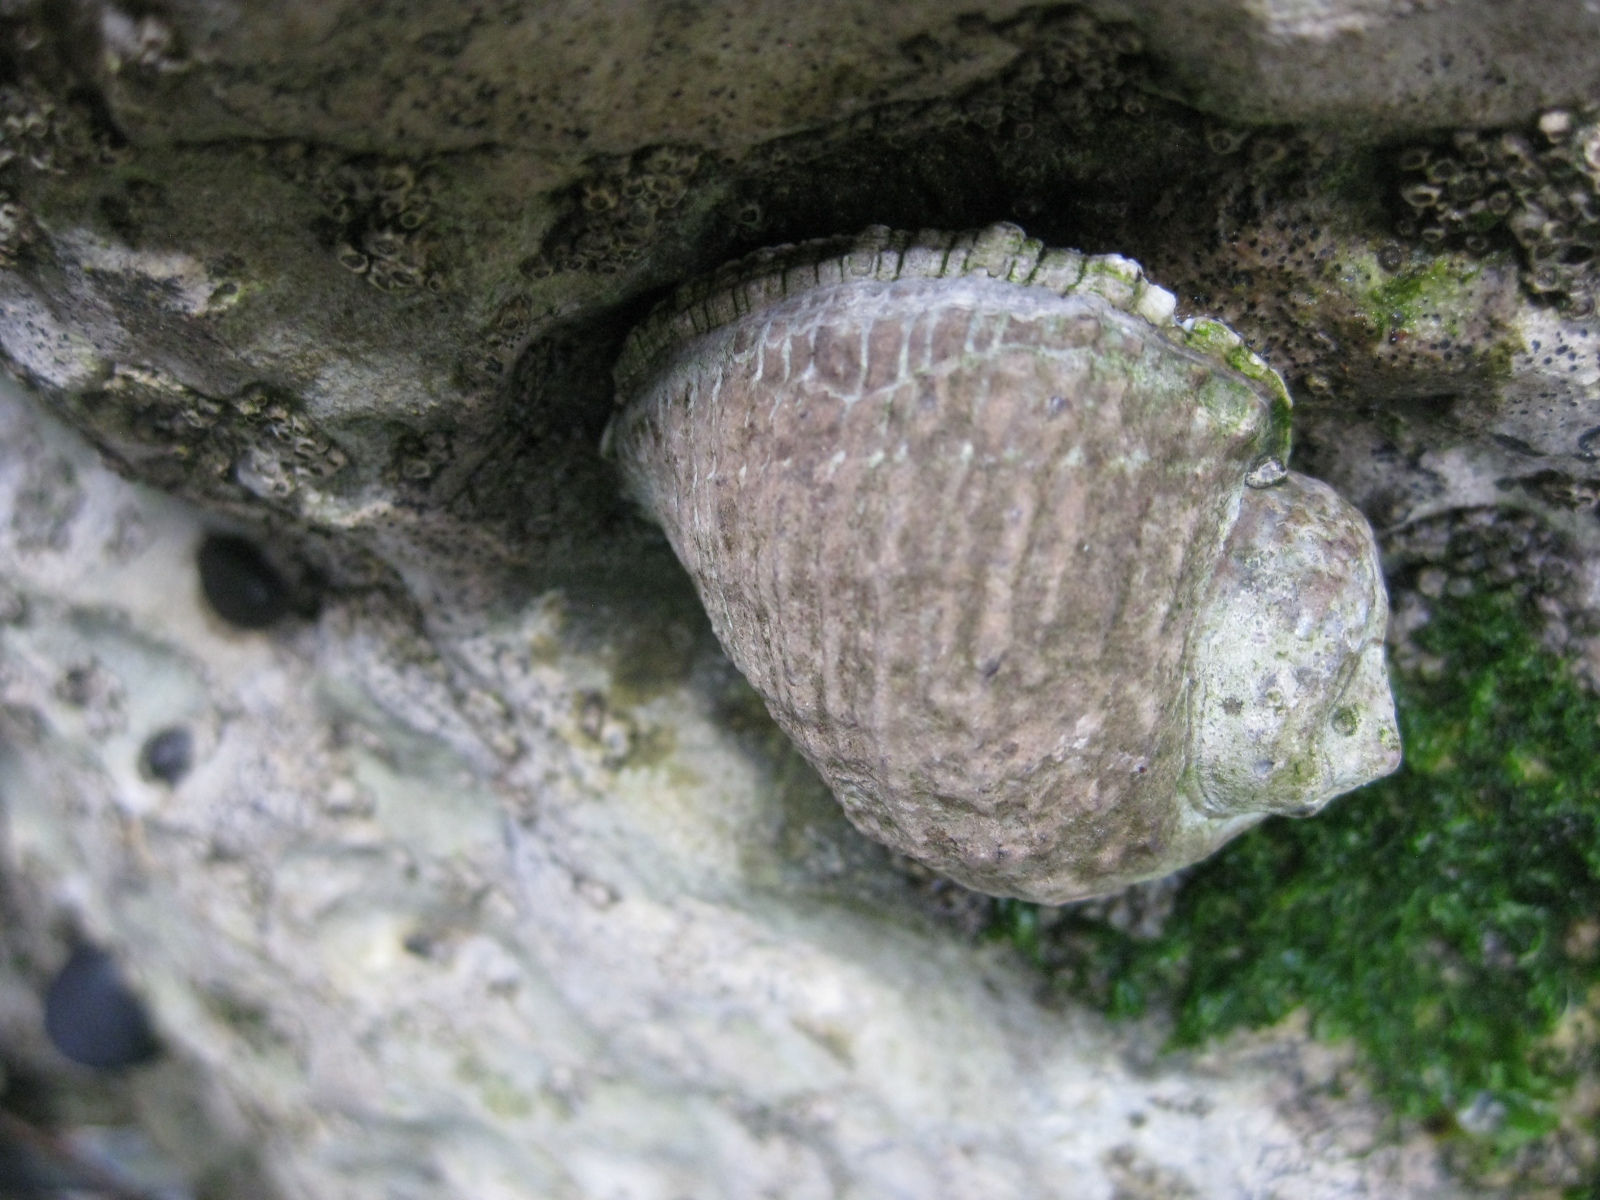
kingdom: Animalia
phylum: Mollusca
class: Gastropoda
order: Neogastropoda
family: Muricidae
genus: Haustrum
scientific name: Haustrum haustorium
